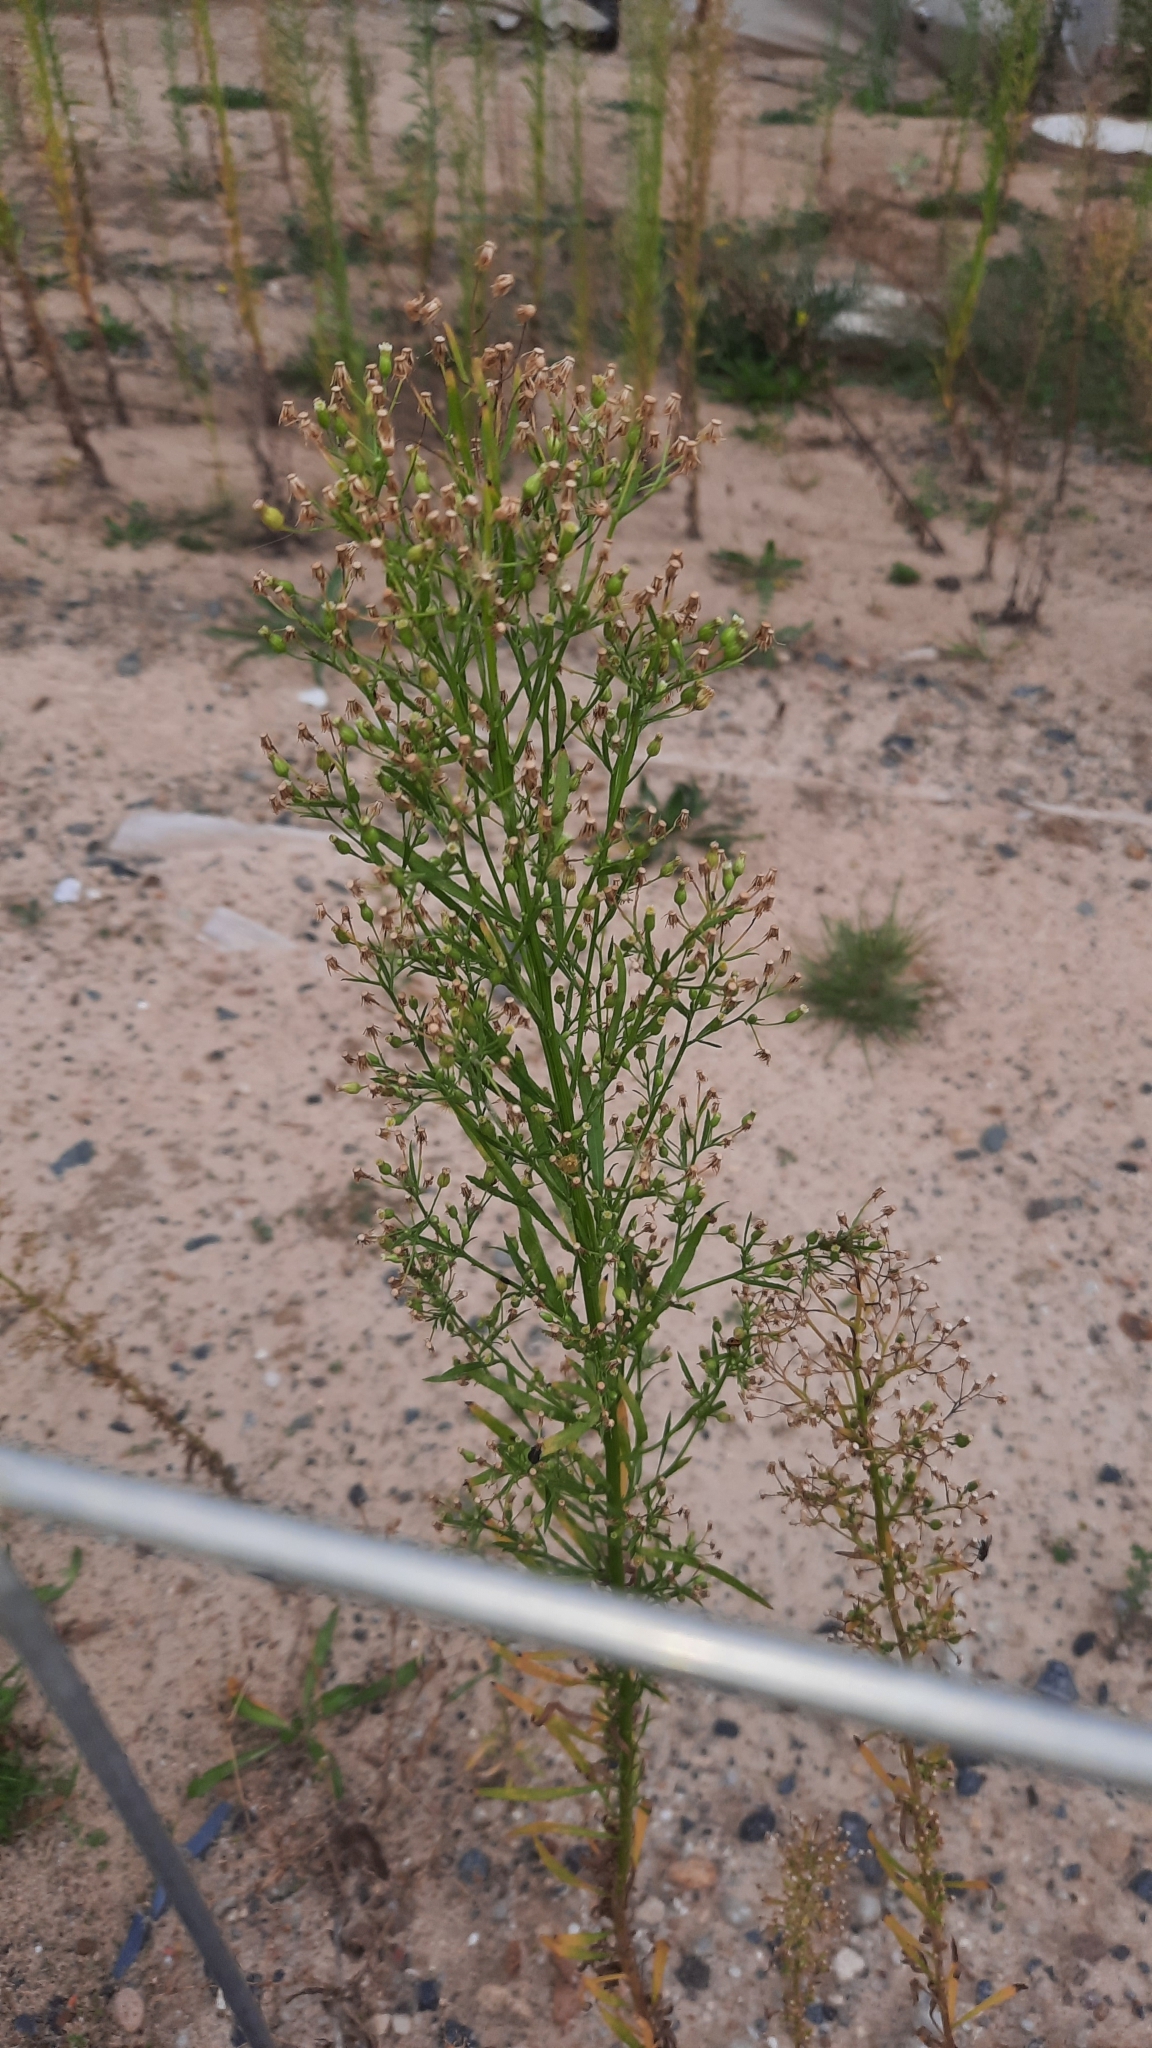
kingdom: Plantae
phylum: Tracheophyta
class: Magnoliopsida
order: Asterales
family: Asteraceae
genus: Erigeron
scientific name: Erigeron canadensis
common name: Canadian fleabane
